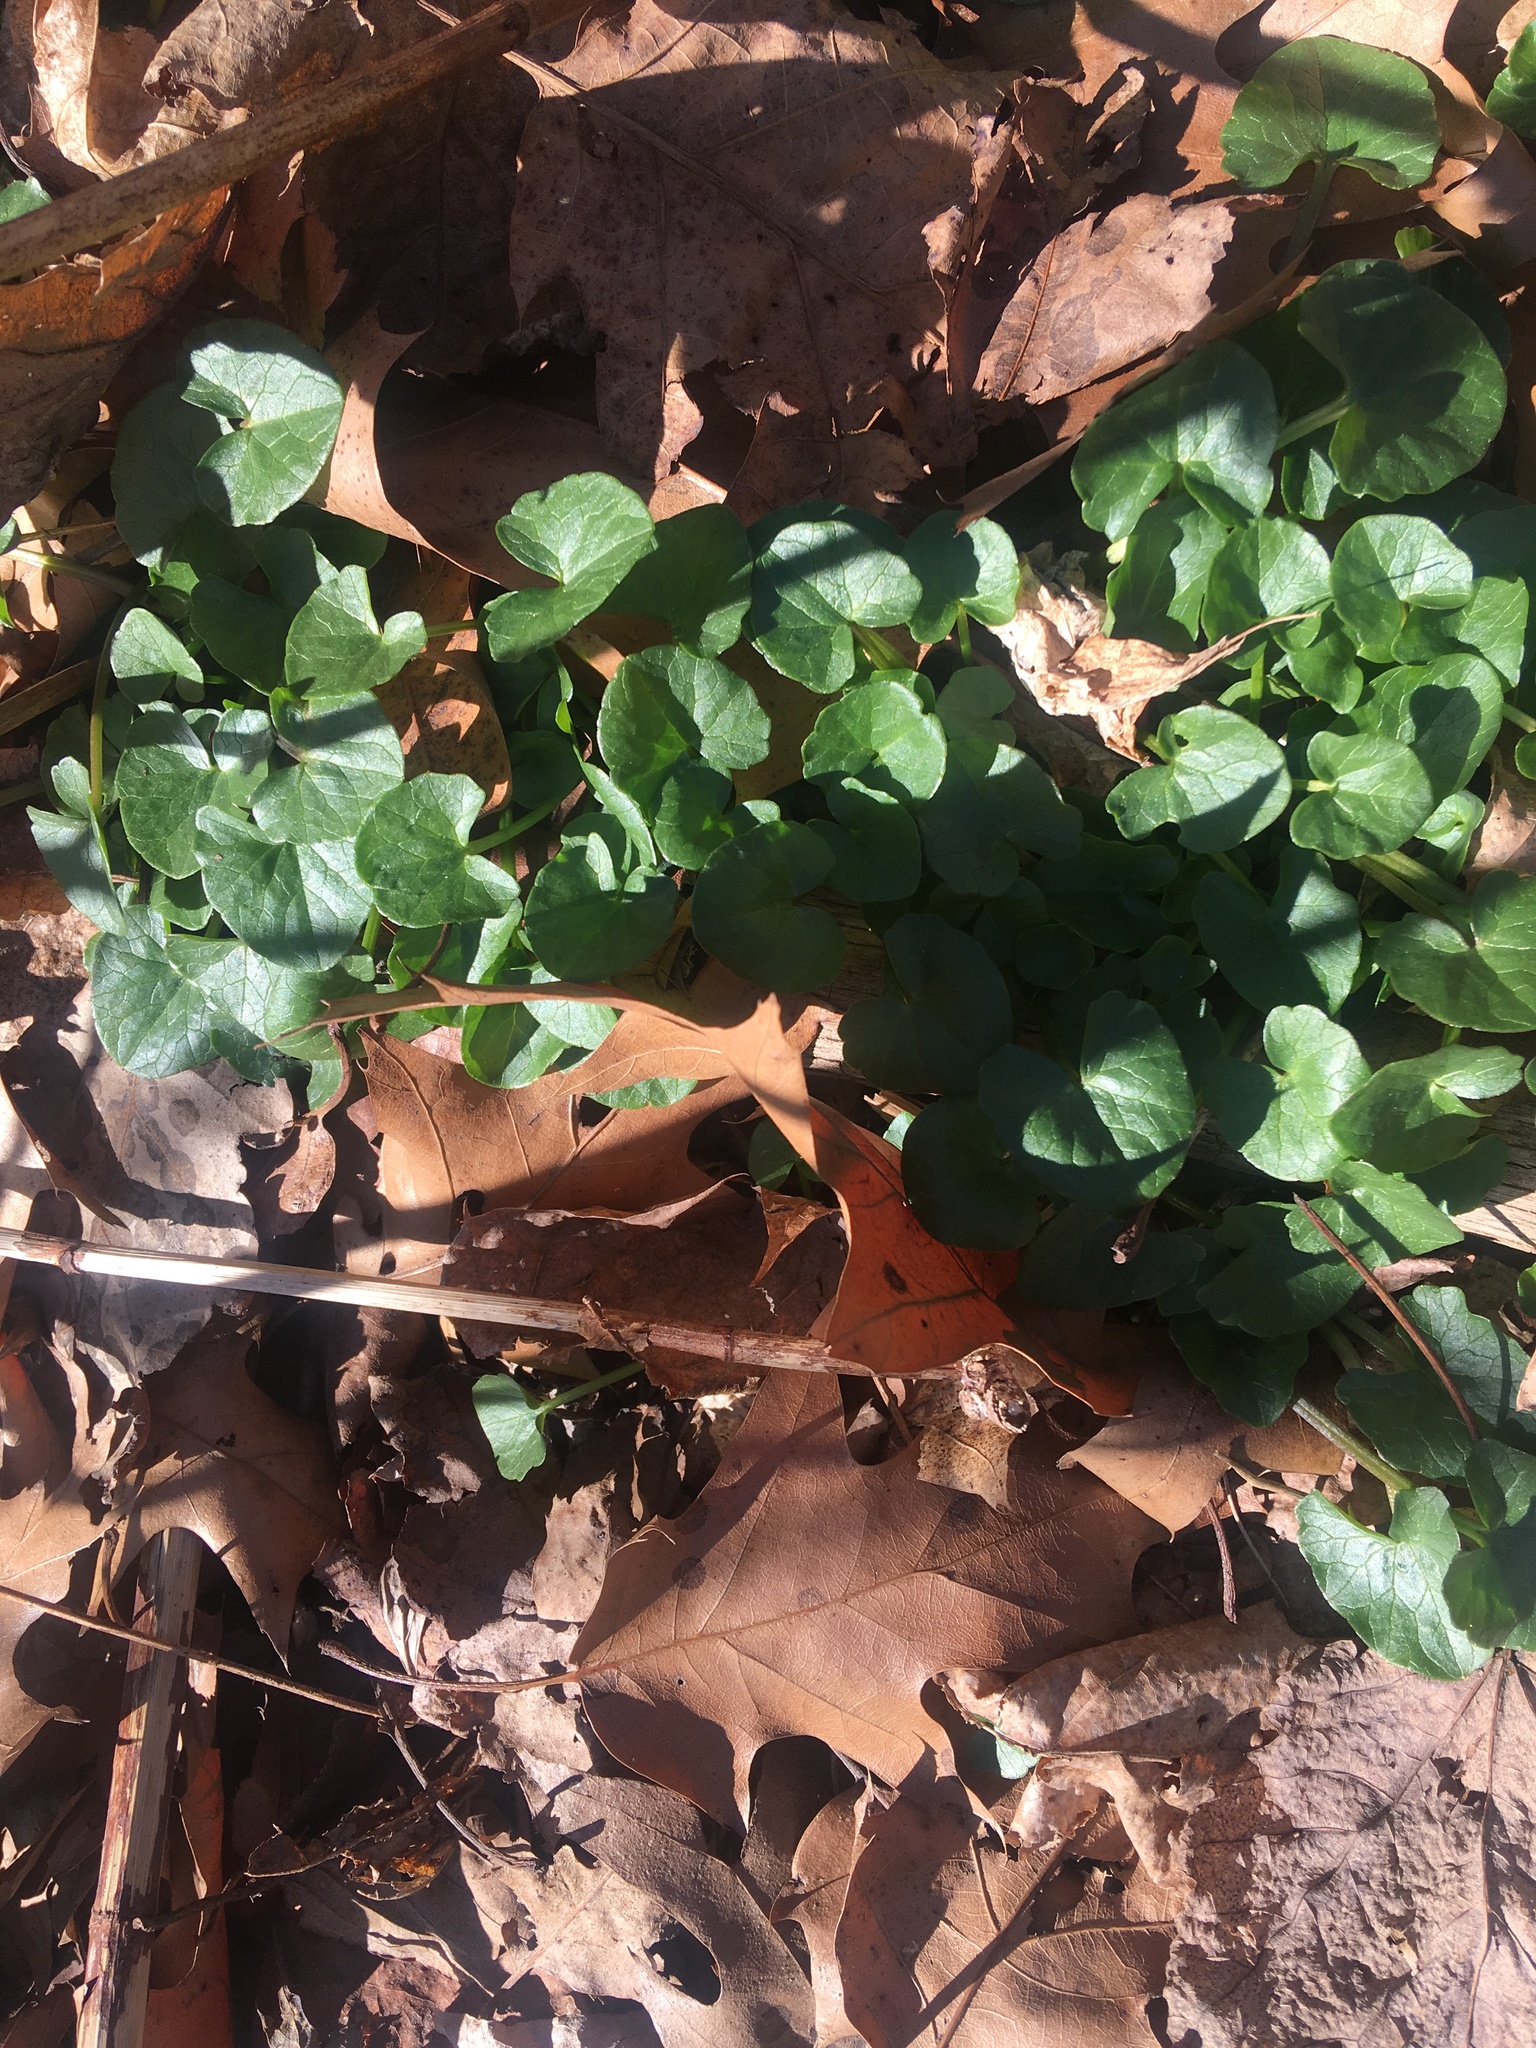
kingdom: Plantae
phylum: Tracheophyta
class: Magnoliopsida
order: Ranunculales
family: Ranunculaceae
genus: Ficaria
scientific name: Ficaria verna
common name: Lesser celandine
